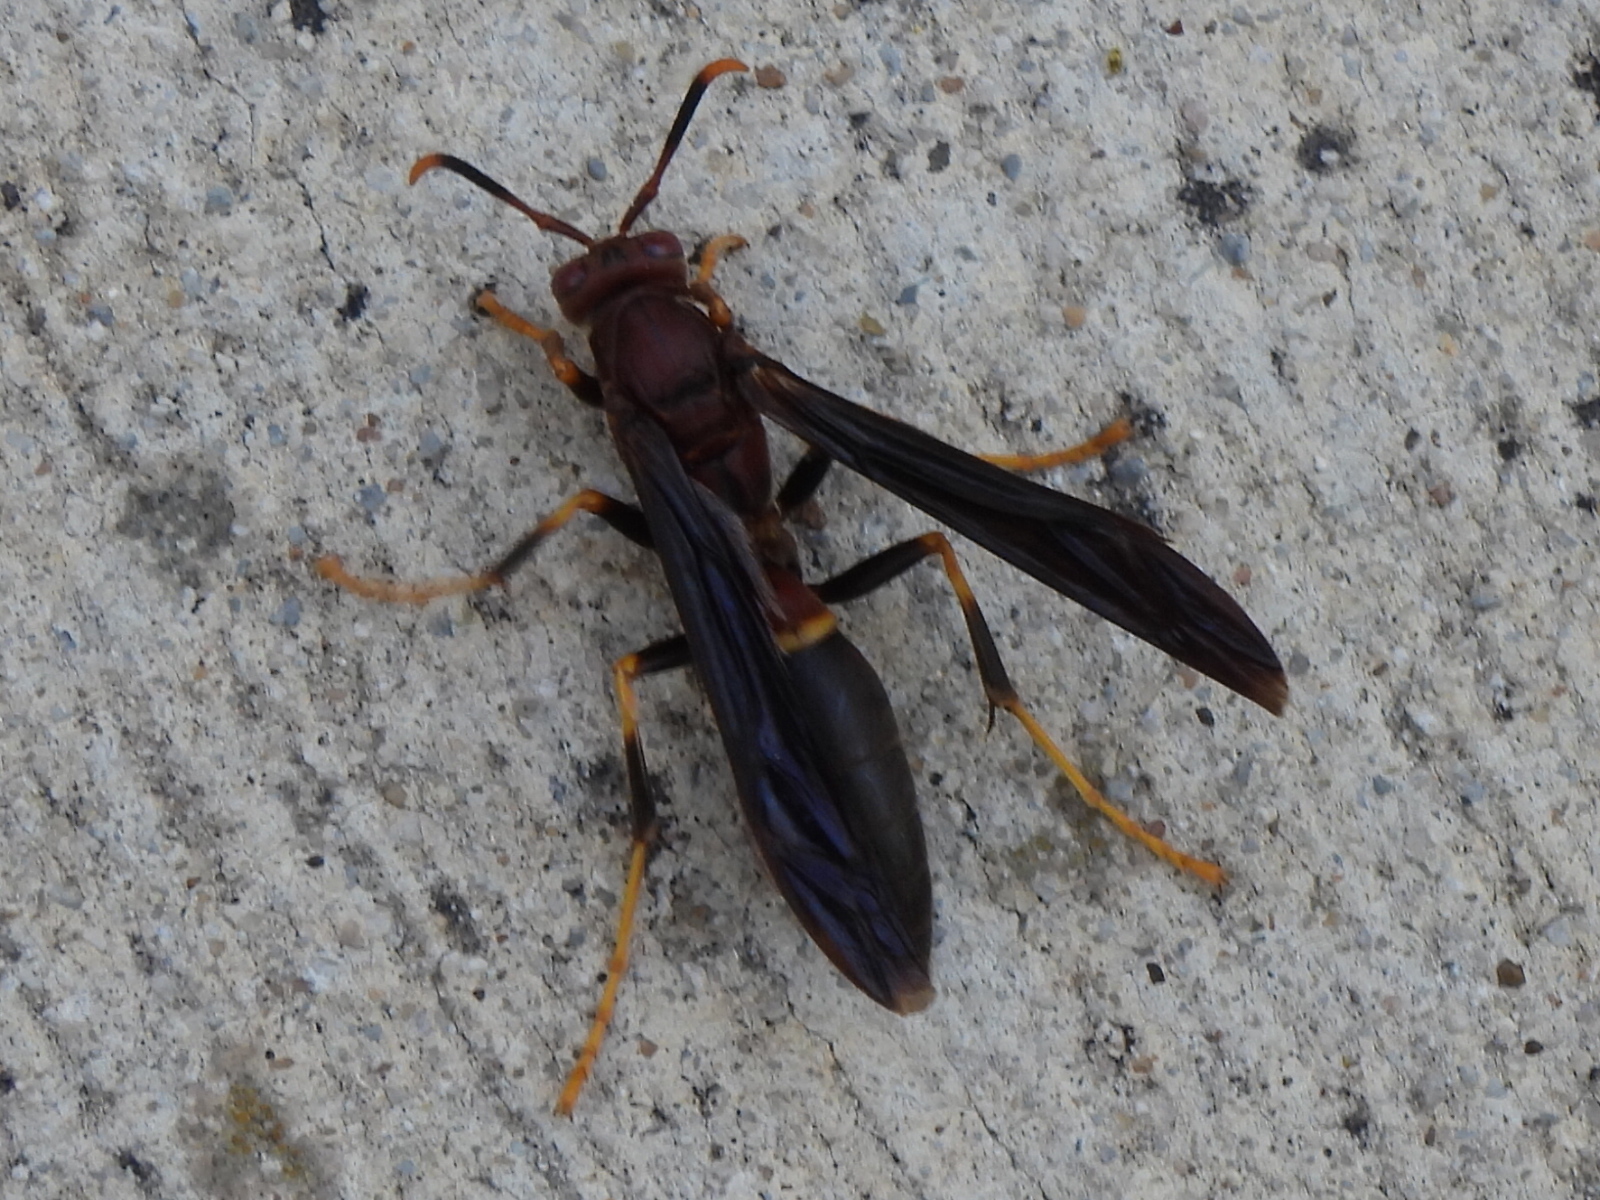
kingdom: Animalia
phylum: Arthropoda
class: Insecta
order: Hymenoptera
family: Eumenidae
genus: Polistes
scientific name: Polistes annularis
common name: Ringed paper wasp
